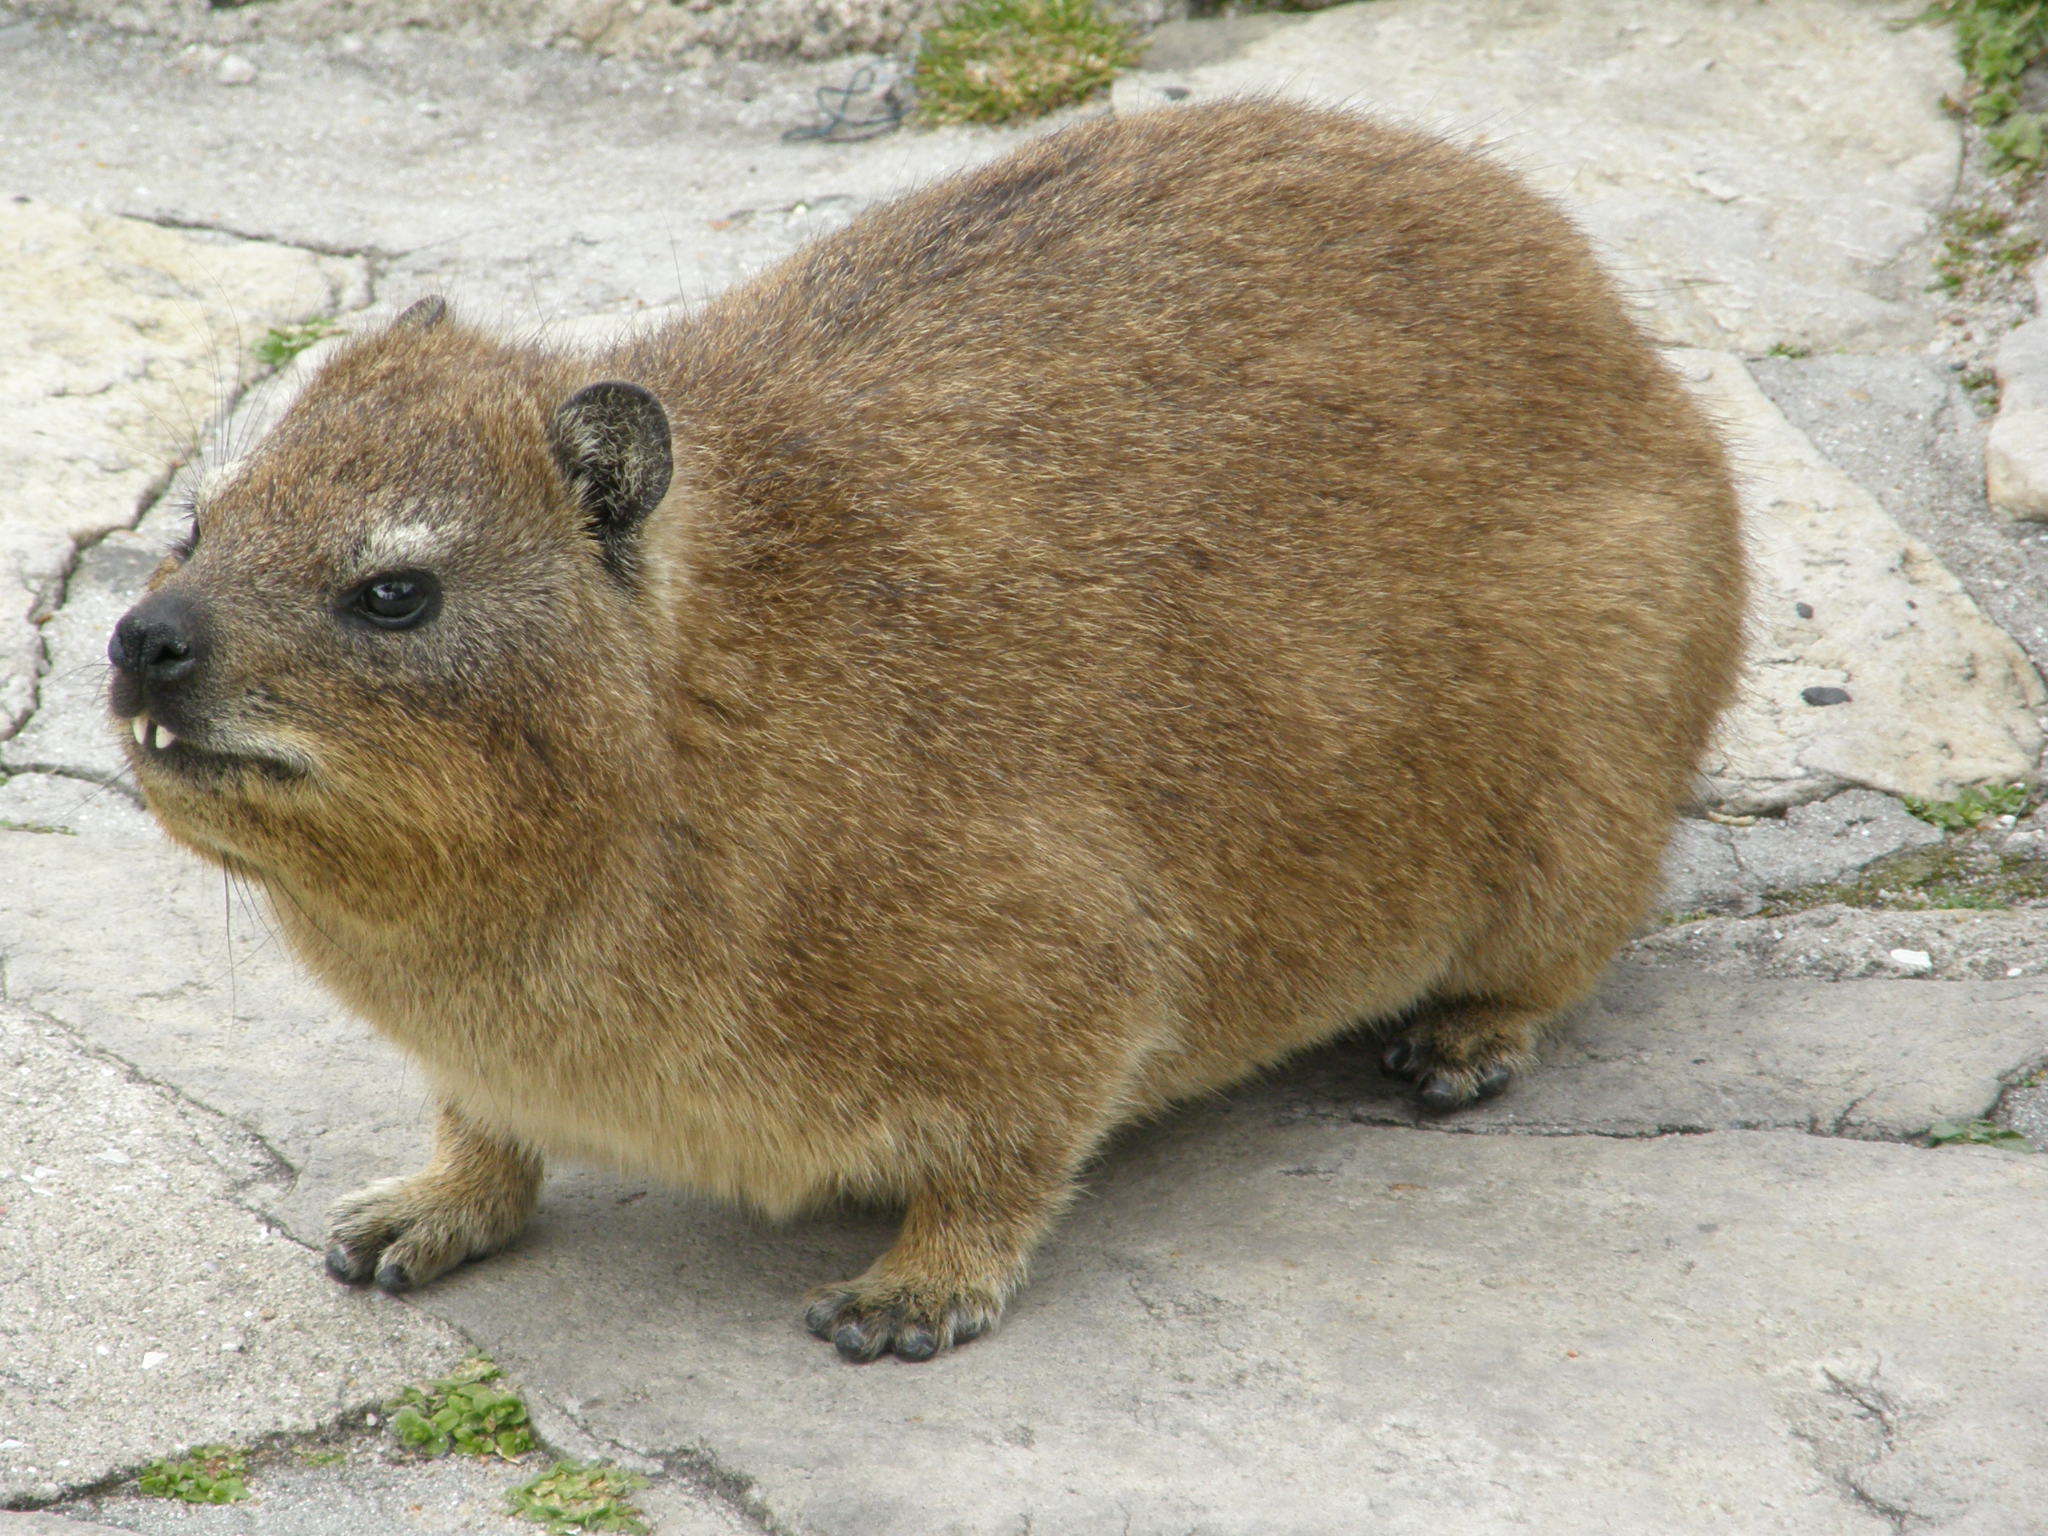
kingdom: Animalia
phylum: Chordata
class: Mammalia
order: Hyracoidea
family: Procaviidae
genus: Procavia
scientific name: Procavia capensis
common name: Rock hyrax
